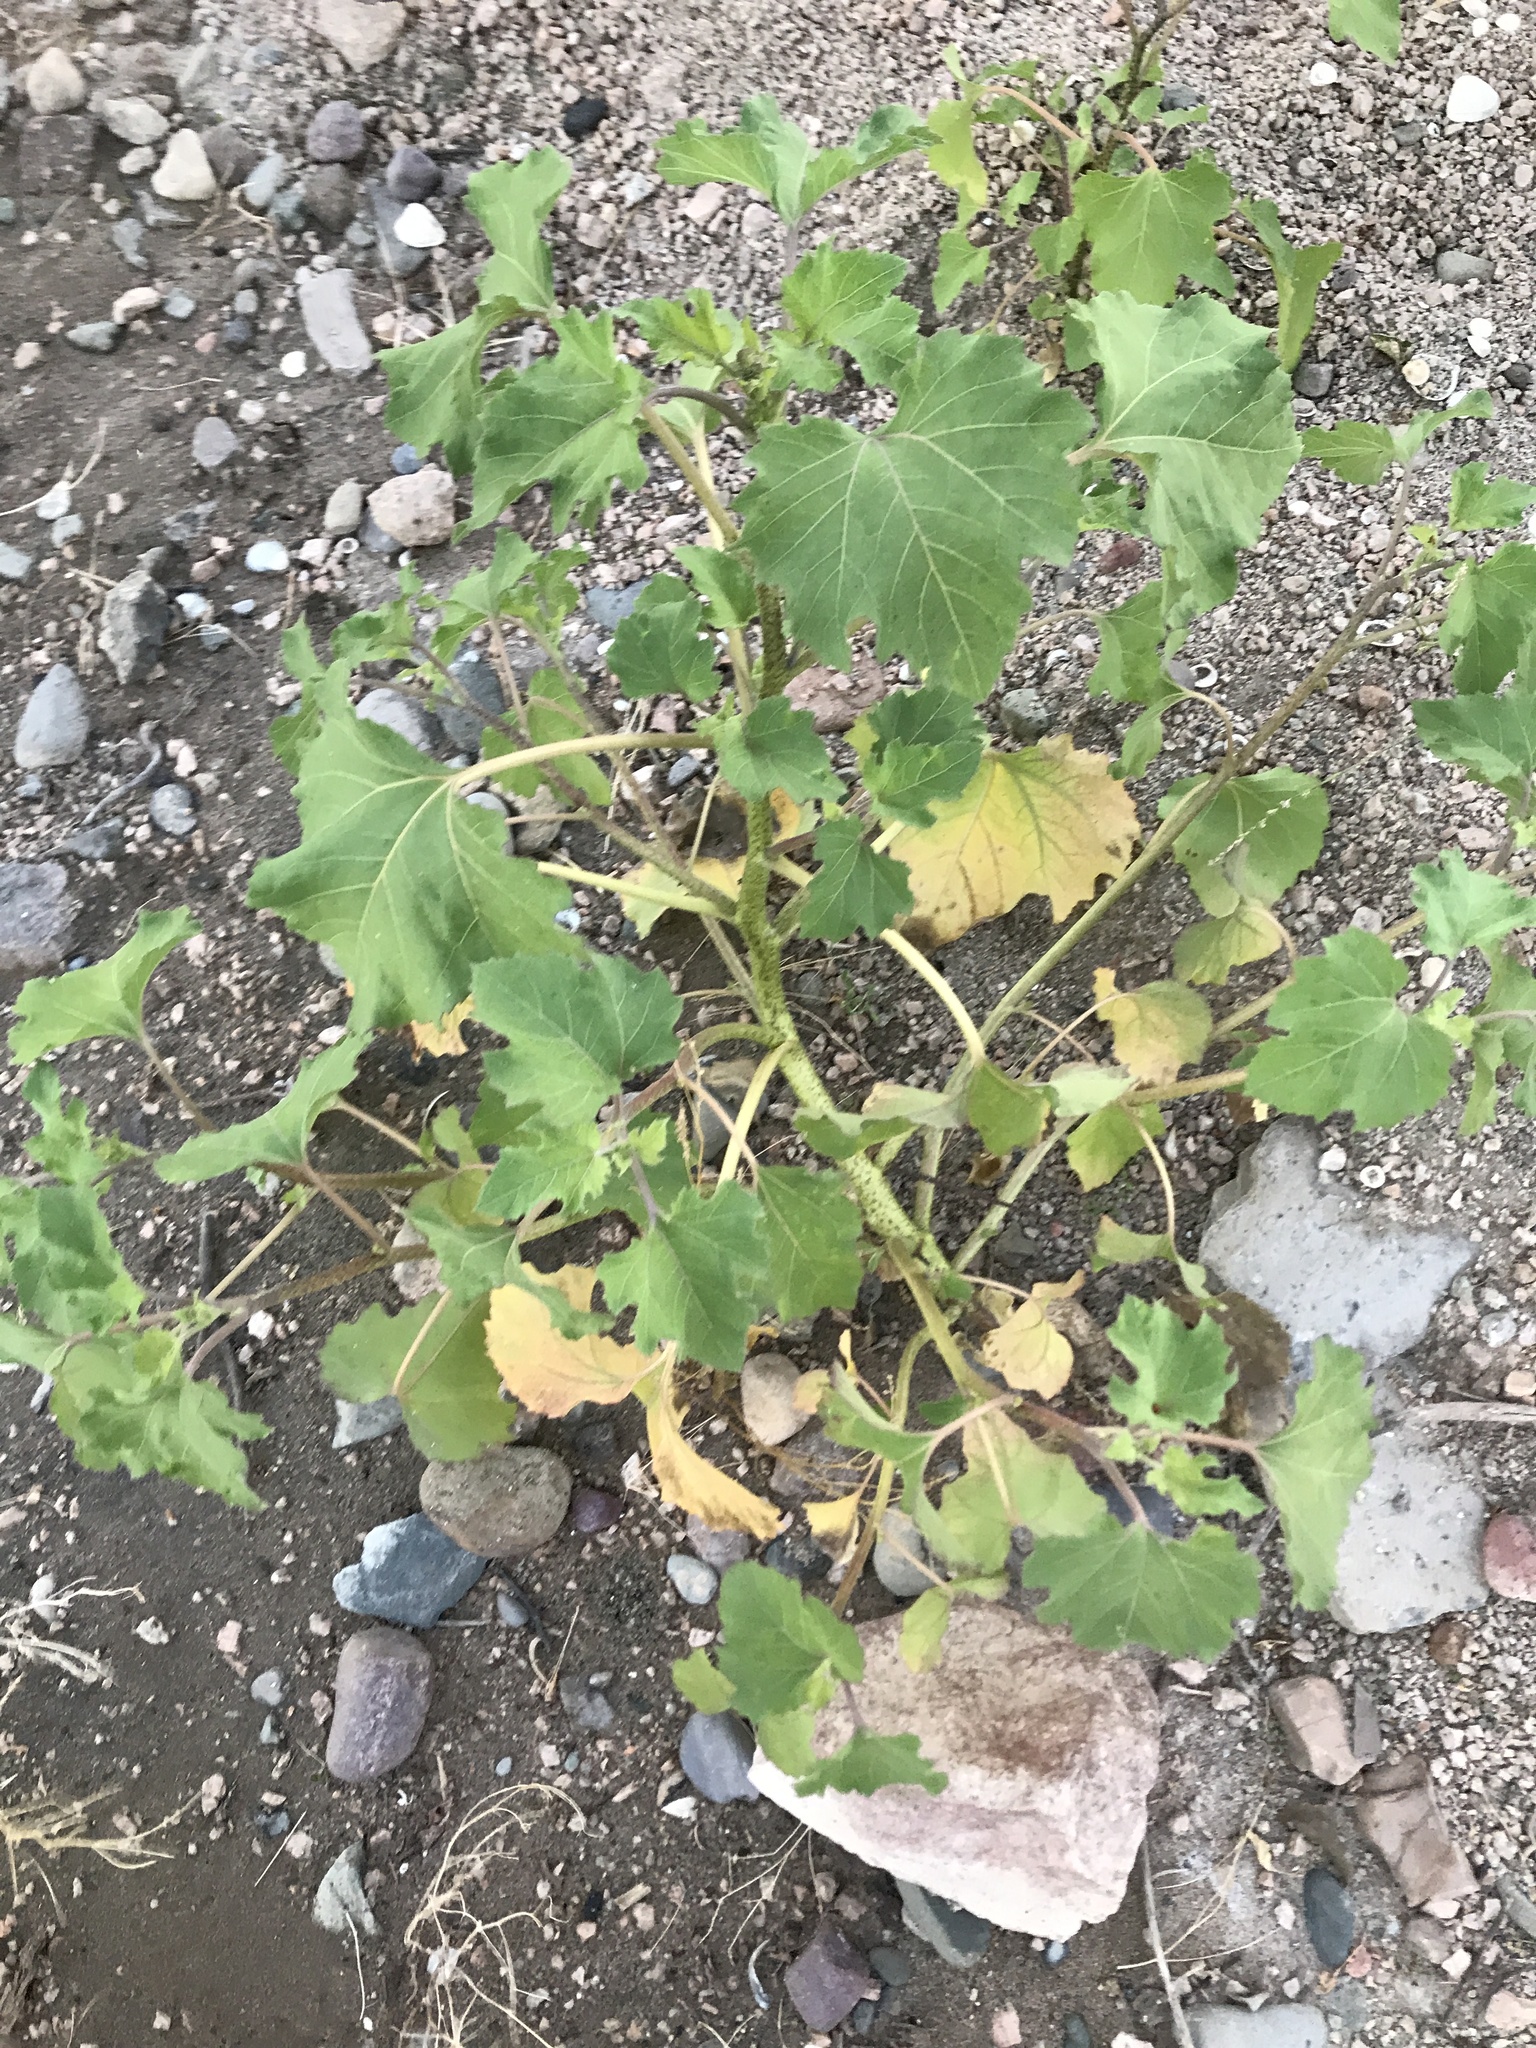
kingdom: Plantae
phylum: Tracheophyta
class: Magnoliopsida
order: Asterales
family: Asteraceae
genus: Xanthium
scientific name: Xanthium strumarium
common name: Rough cocklebur
